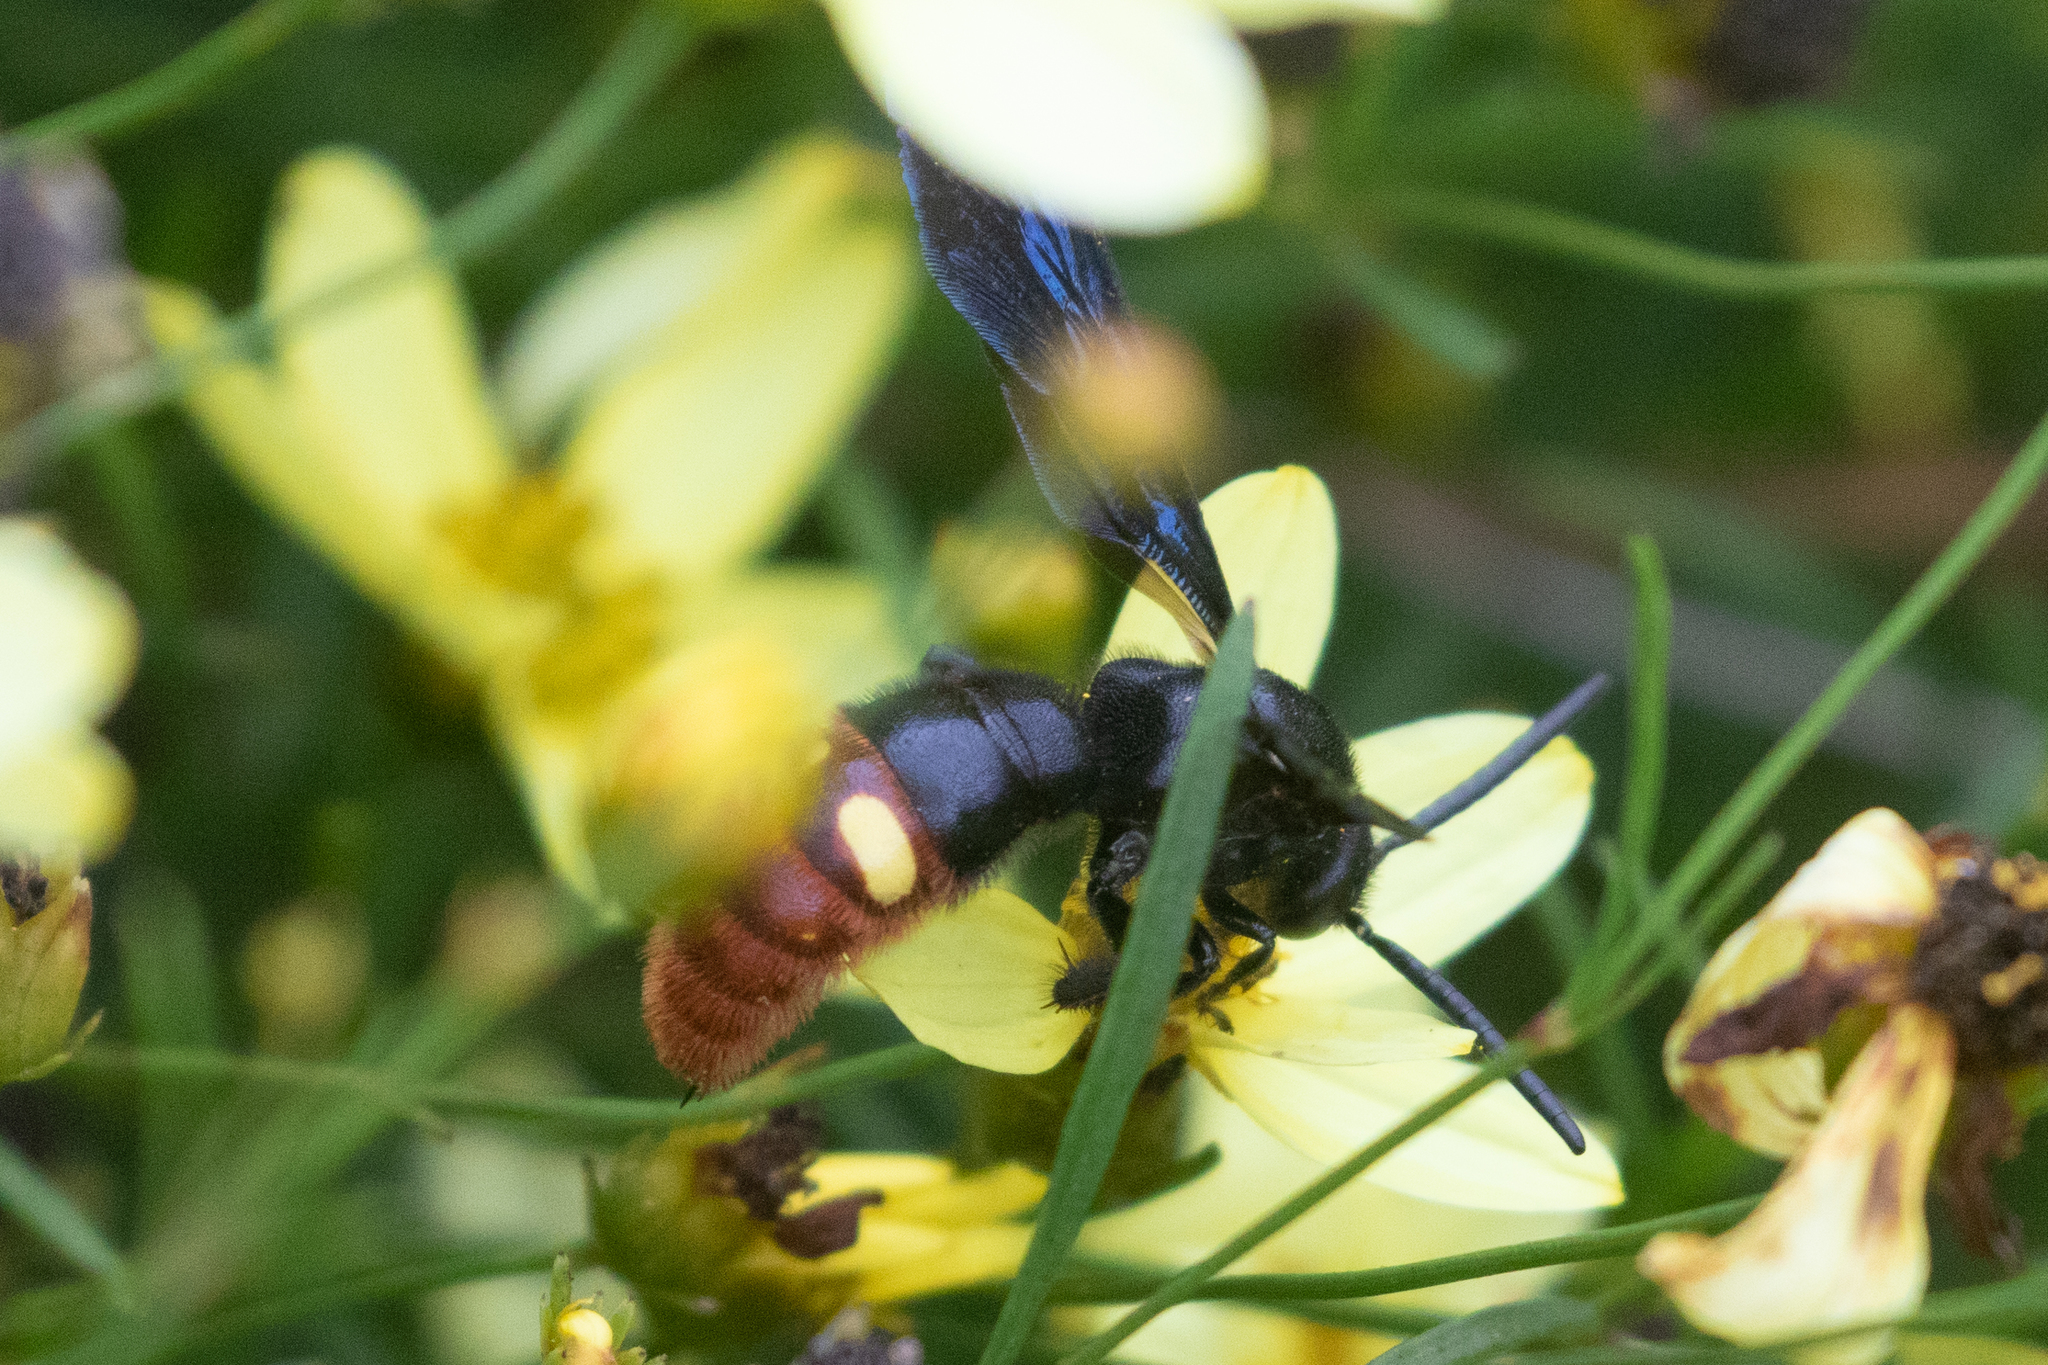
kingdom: Animalia
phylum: Arthropoda
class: Insecta
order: Hymenoptera
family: Scoliidae
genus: Scolia
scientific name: Scolia dubia
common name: Blue-winged scoliid wasp
